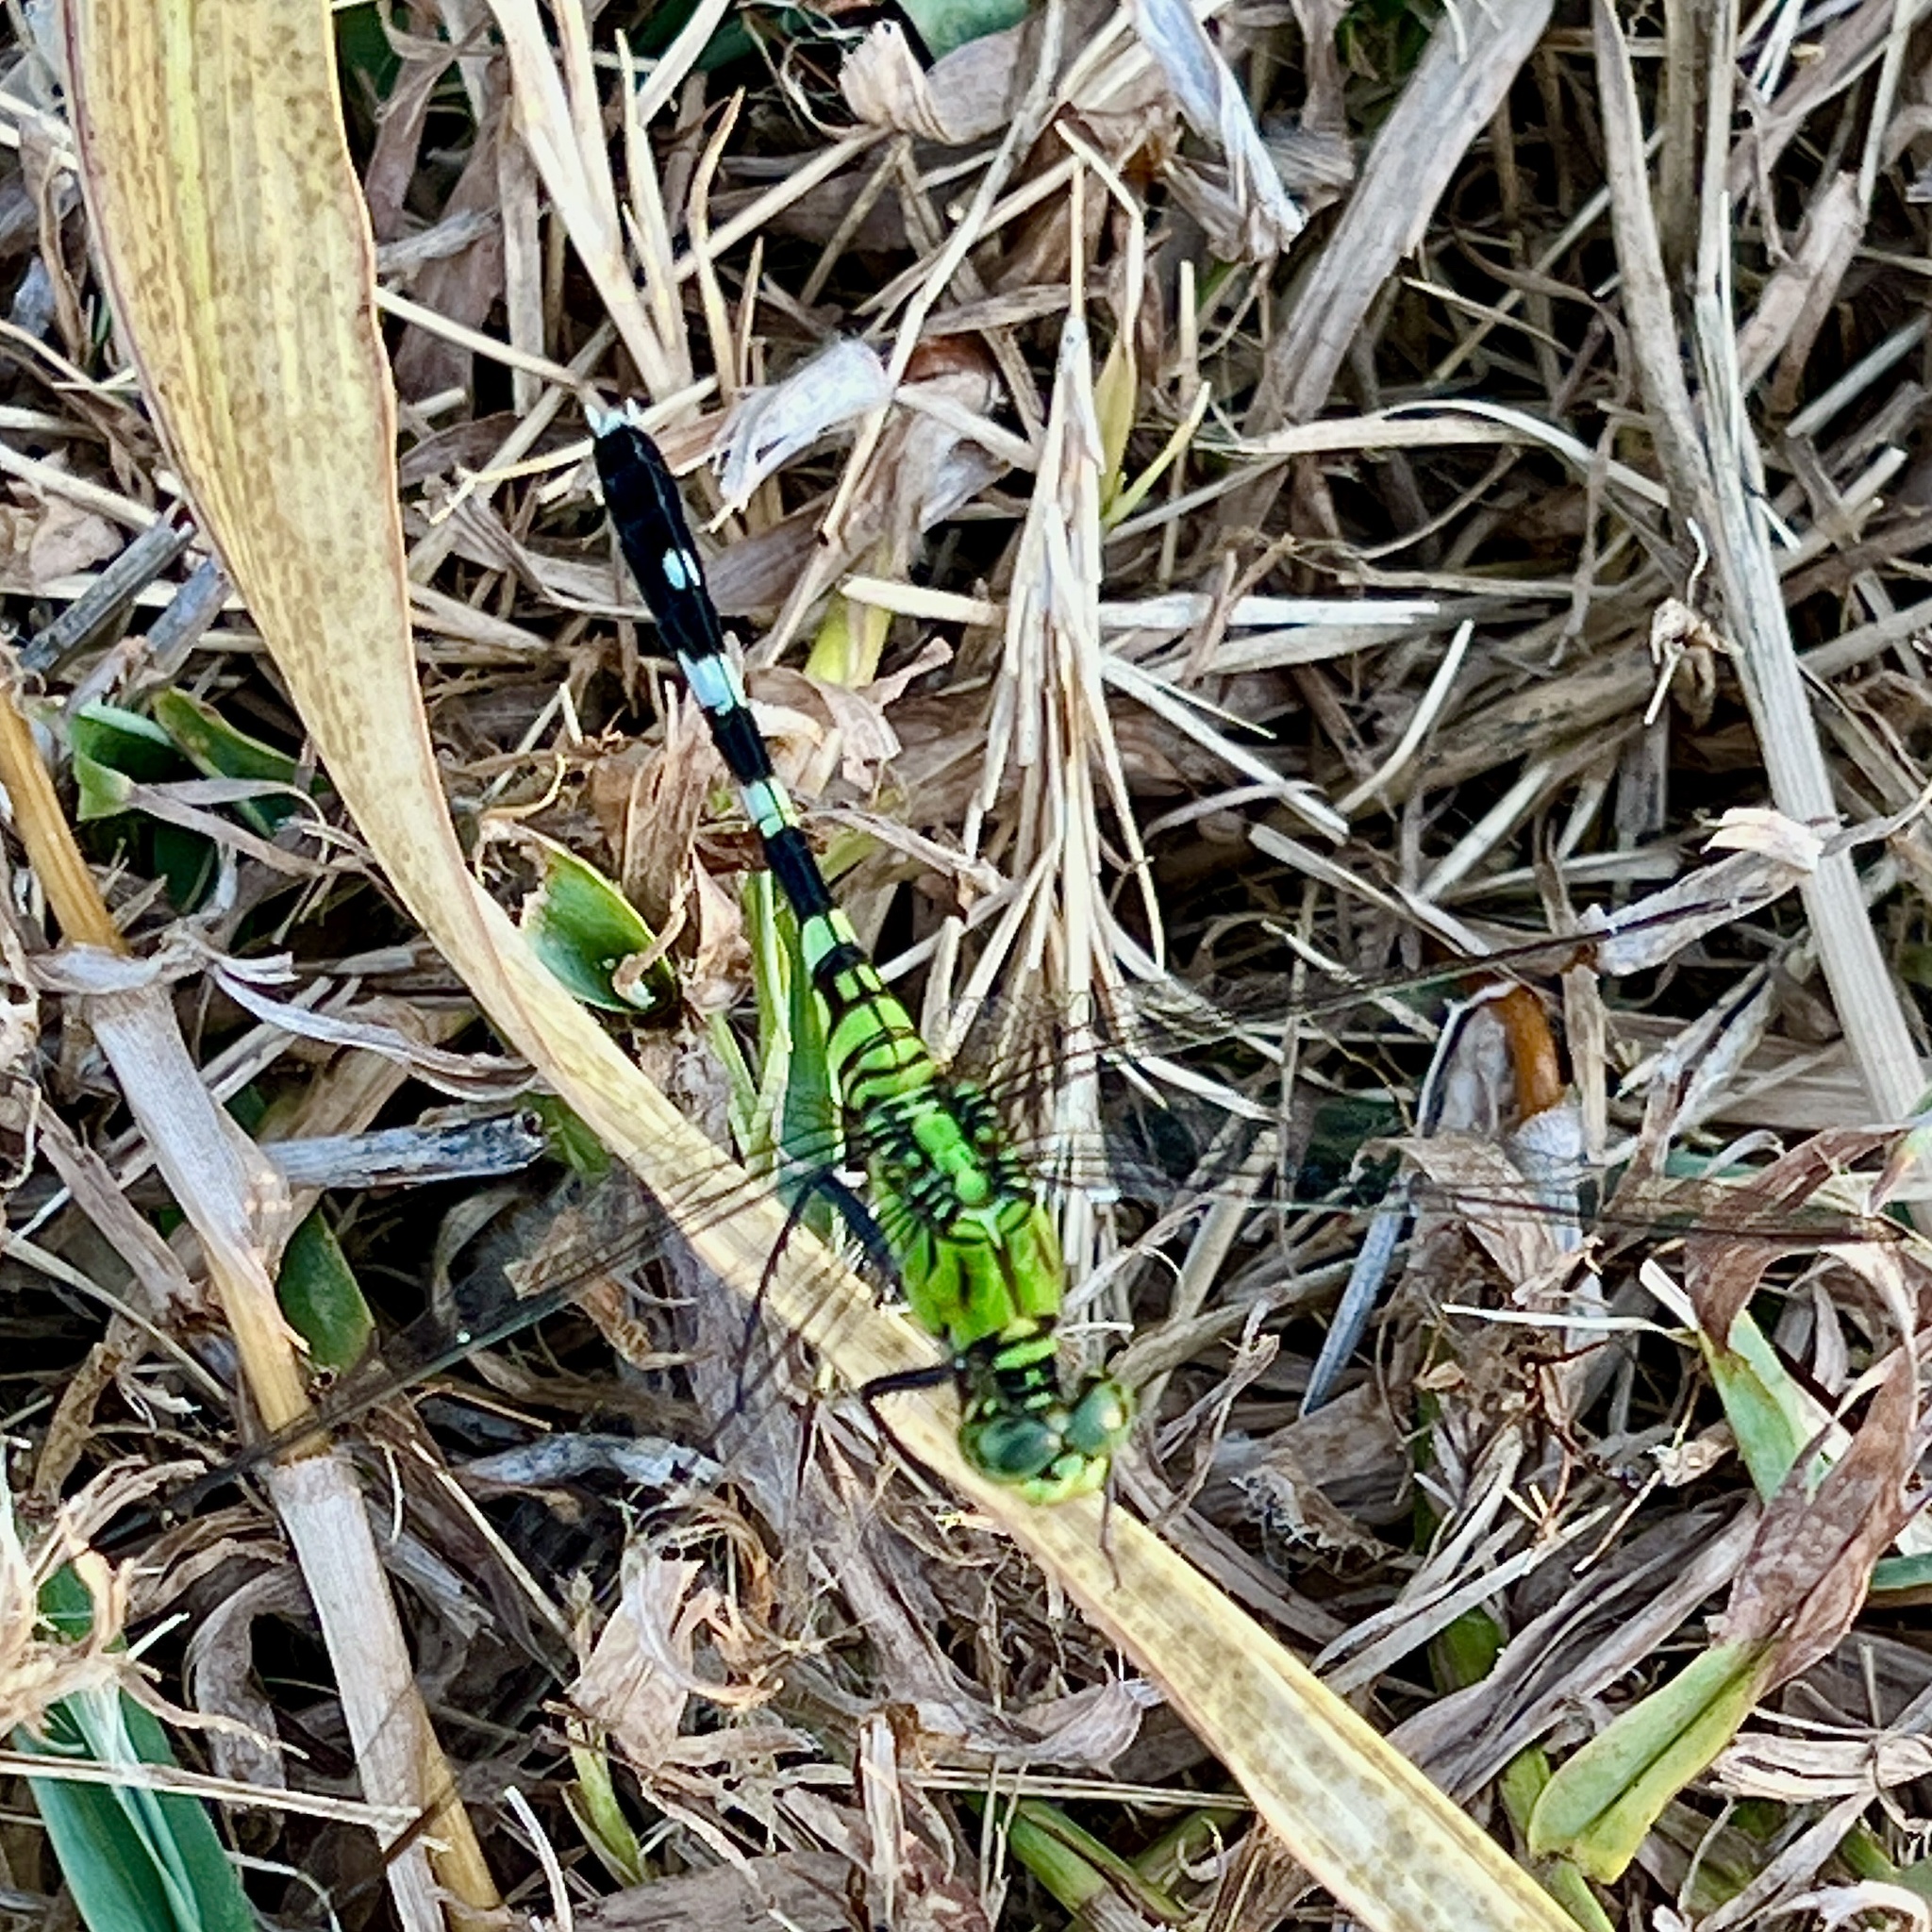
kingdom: Animalia
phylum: Arthropoda
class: Insecta
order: Odonata
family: Libellulidae
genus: Erythemis
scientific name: Erythemis simplicicollis
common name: Eastern pondhawk
